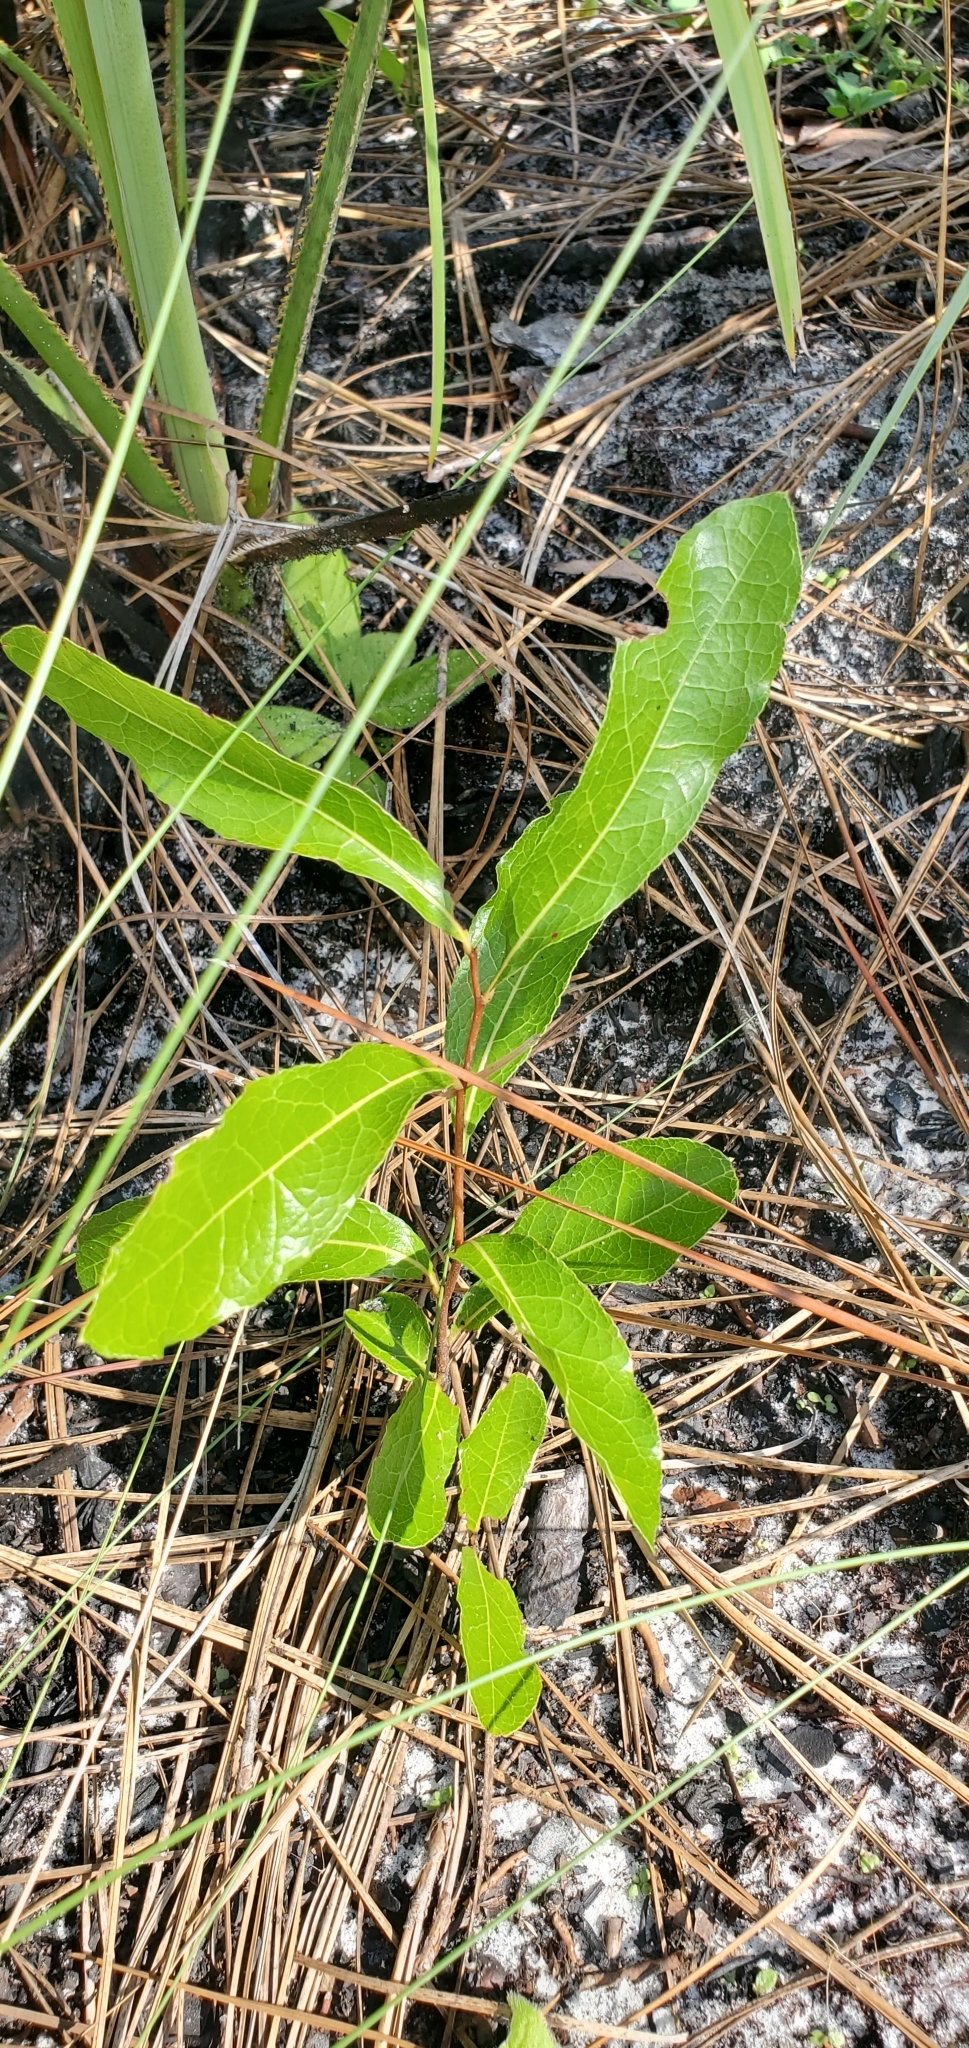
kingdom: Plantae
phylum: Tracheophyta
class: Magnoliopsida
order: Malpighiales
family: Chrysobalanaceae
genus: Geobalanus
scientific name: Geobalanus oblongifolius
